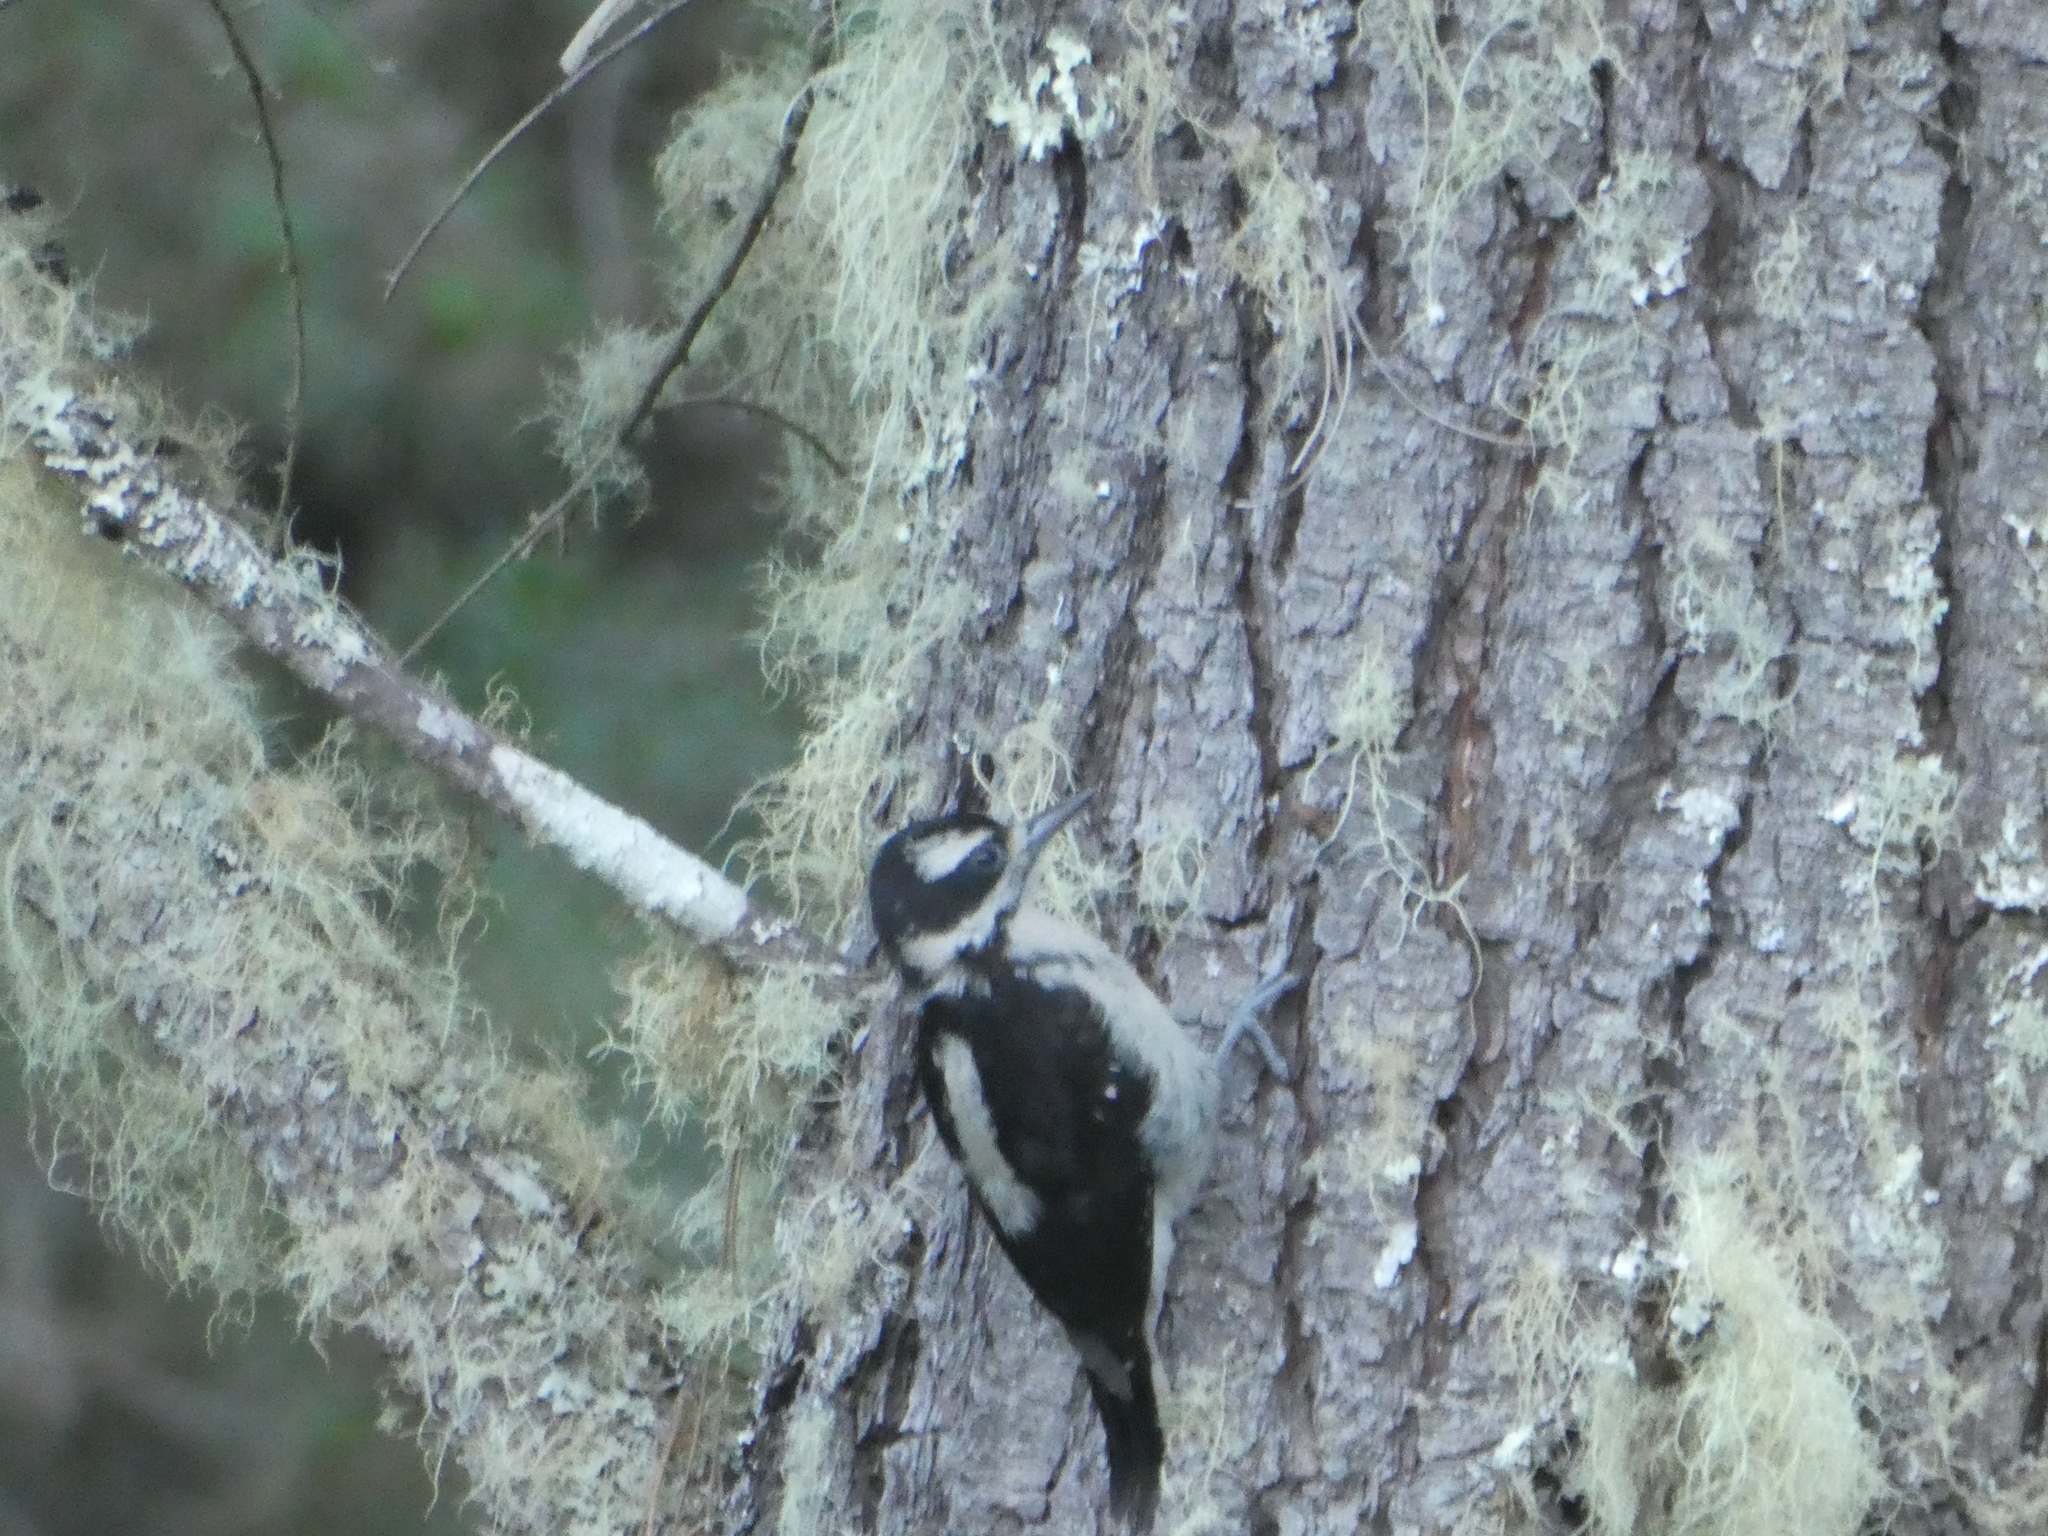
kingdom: Animalia
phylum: Chordata
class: Aves
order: Piciformes
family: Picidae
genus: Leuconotopicus
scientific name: Leuconotopicus villosus
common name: Hairy woodpecker
